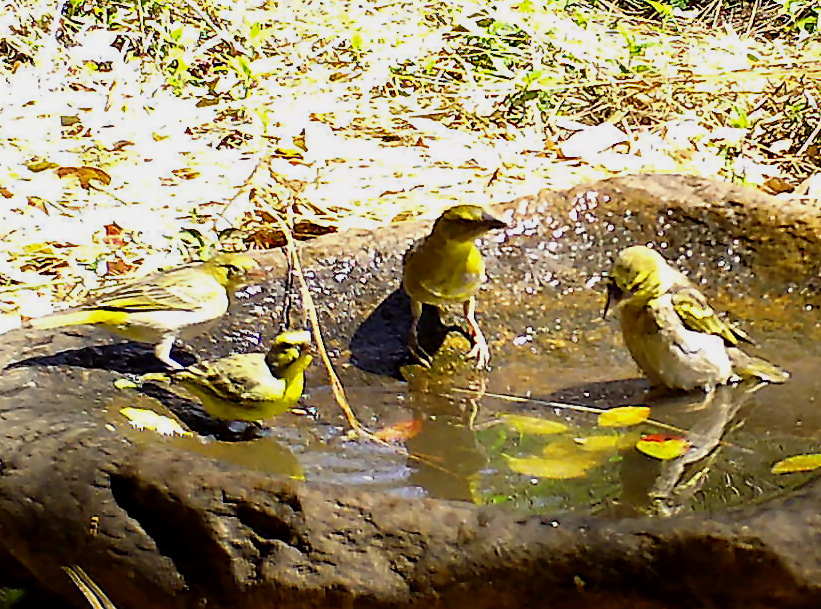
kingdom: Animalia
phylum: Chordata
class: Aves
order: Passeriformes
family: Ploceidae
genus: Ploceus
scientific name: Ploceus cucullatus
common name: Village weaver
